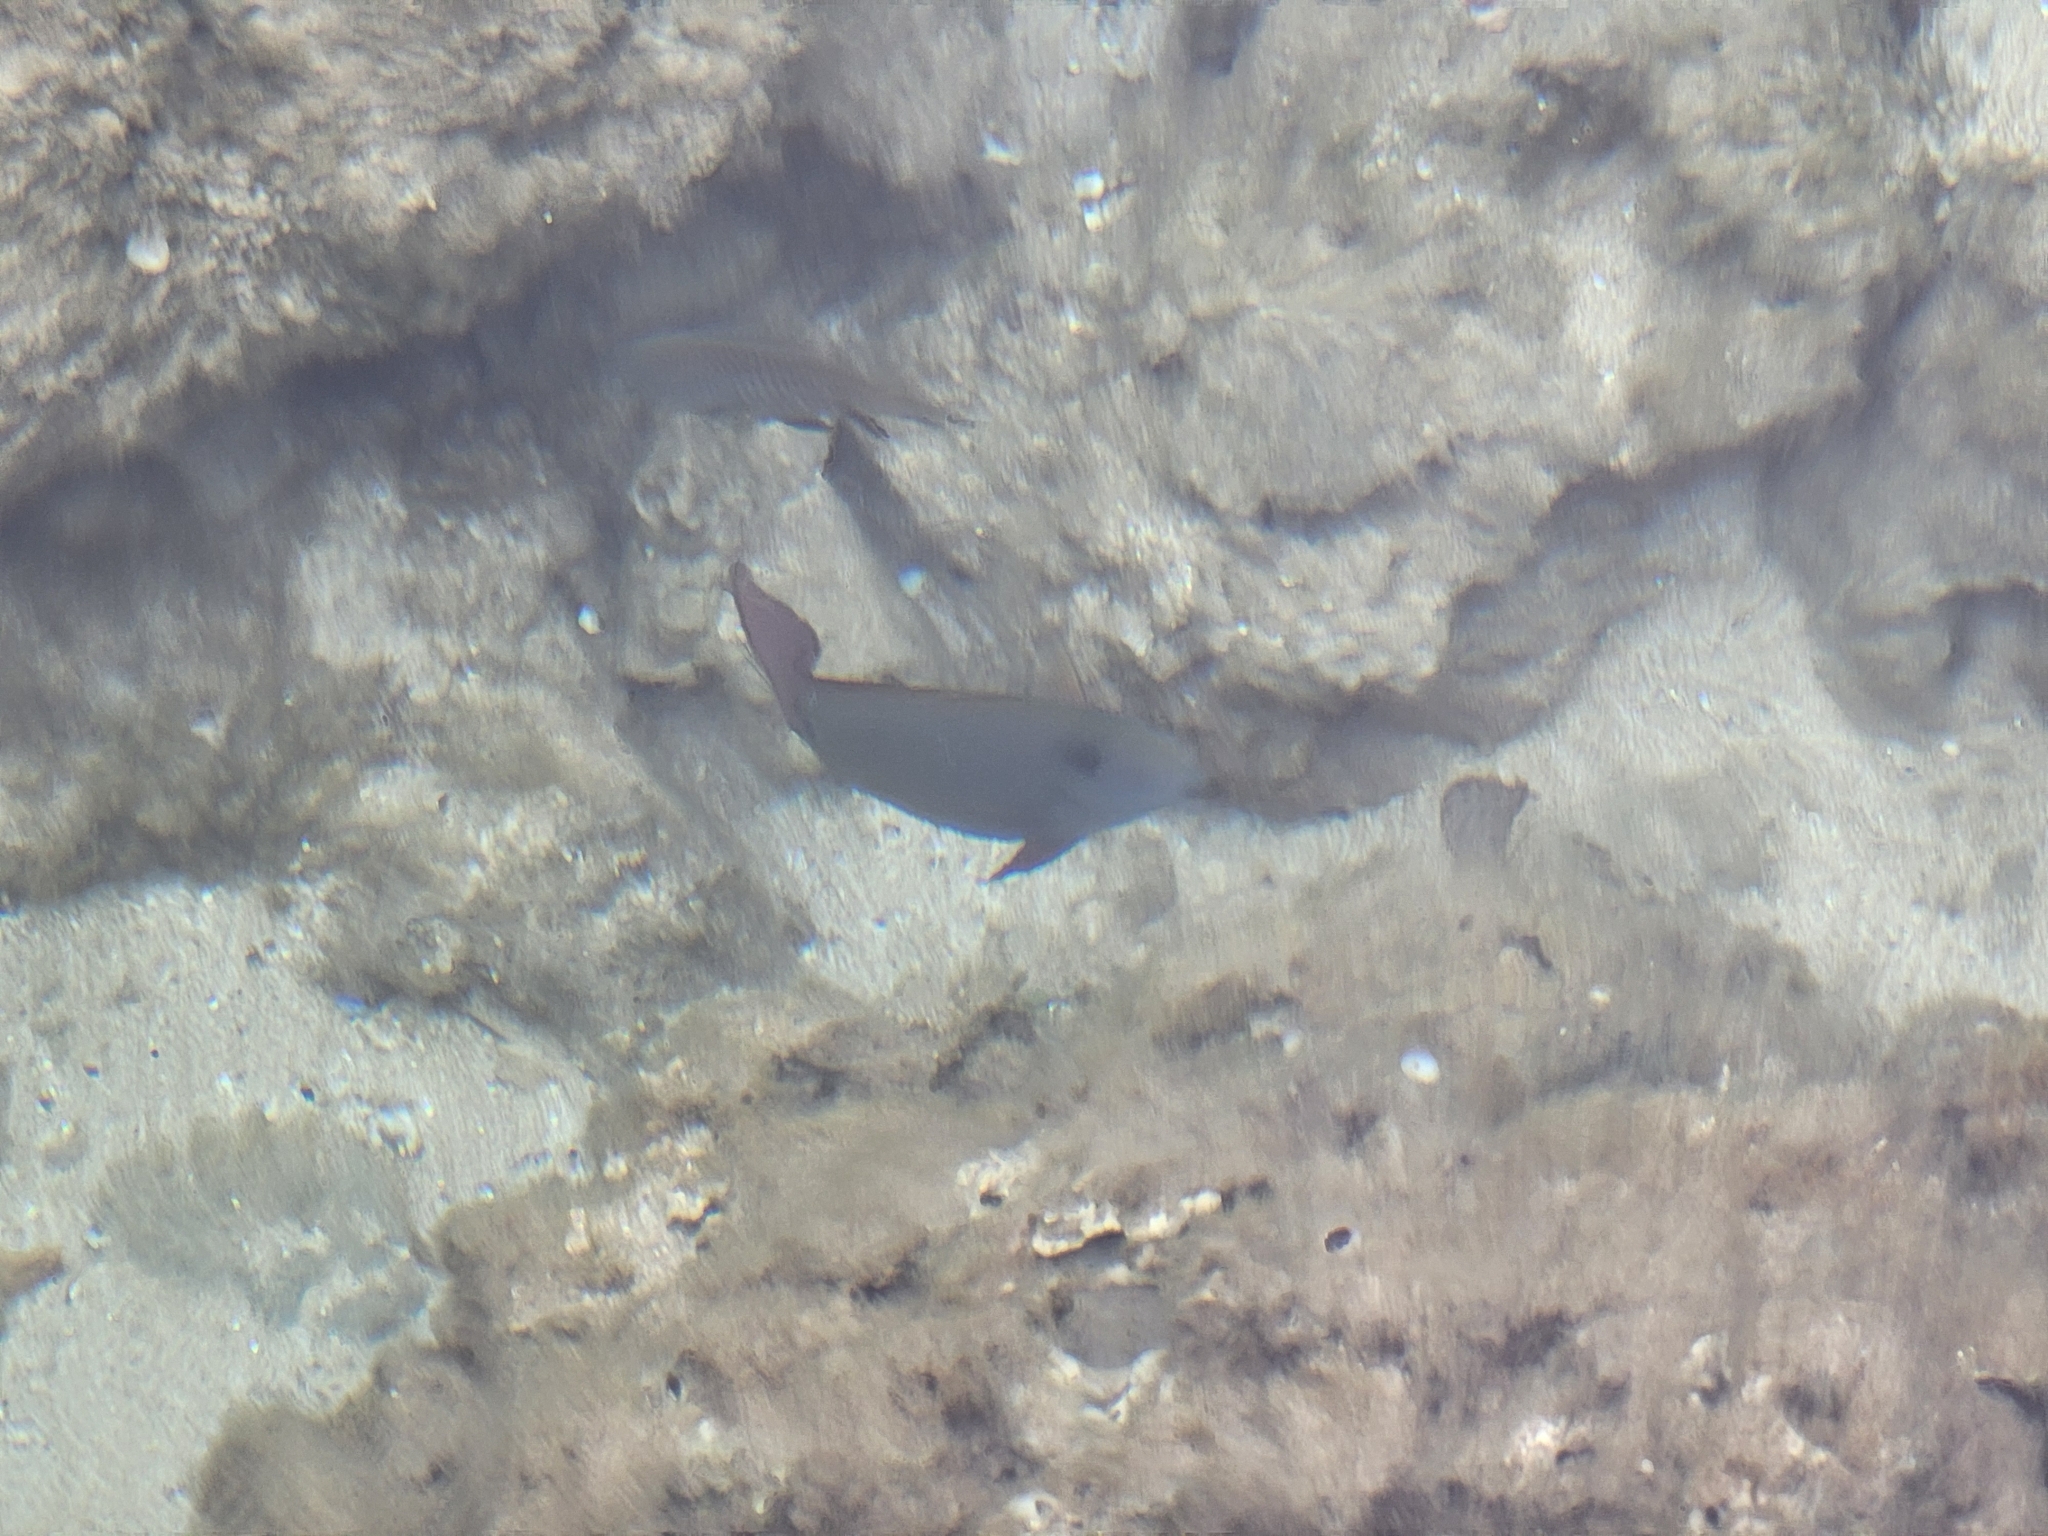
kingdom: Animalia
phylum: Chordata
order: Perciformes
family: Acanthuridae
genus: Acanthurus
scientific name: Acanthurus nigrofuscus
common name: Blackspot surgeonfish
